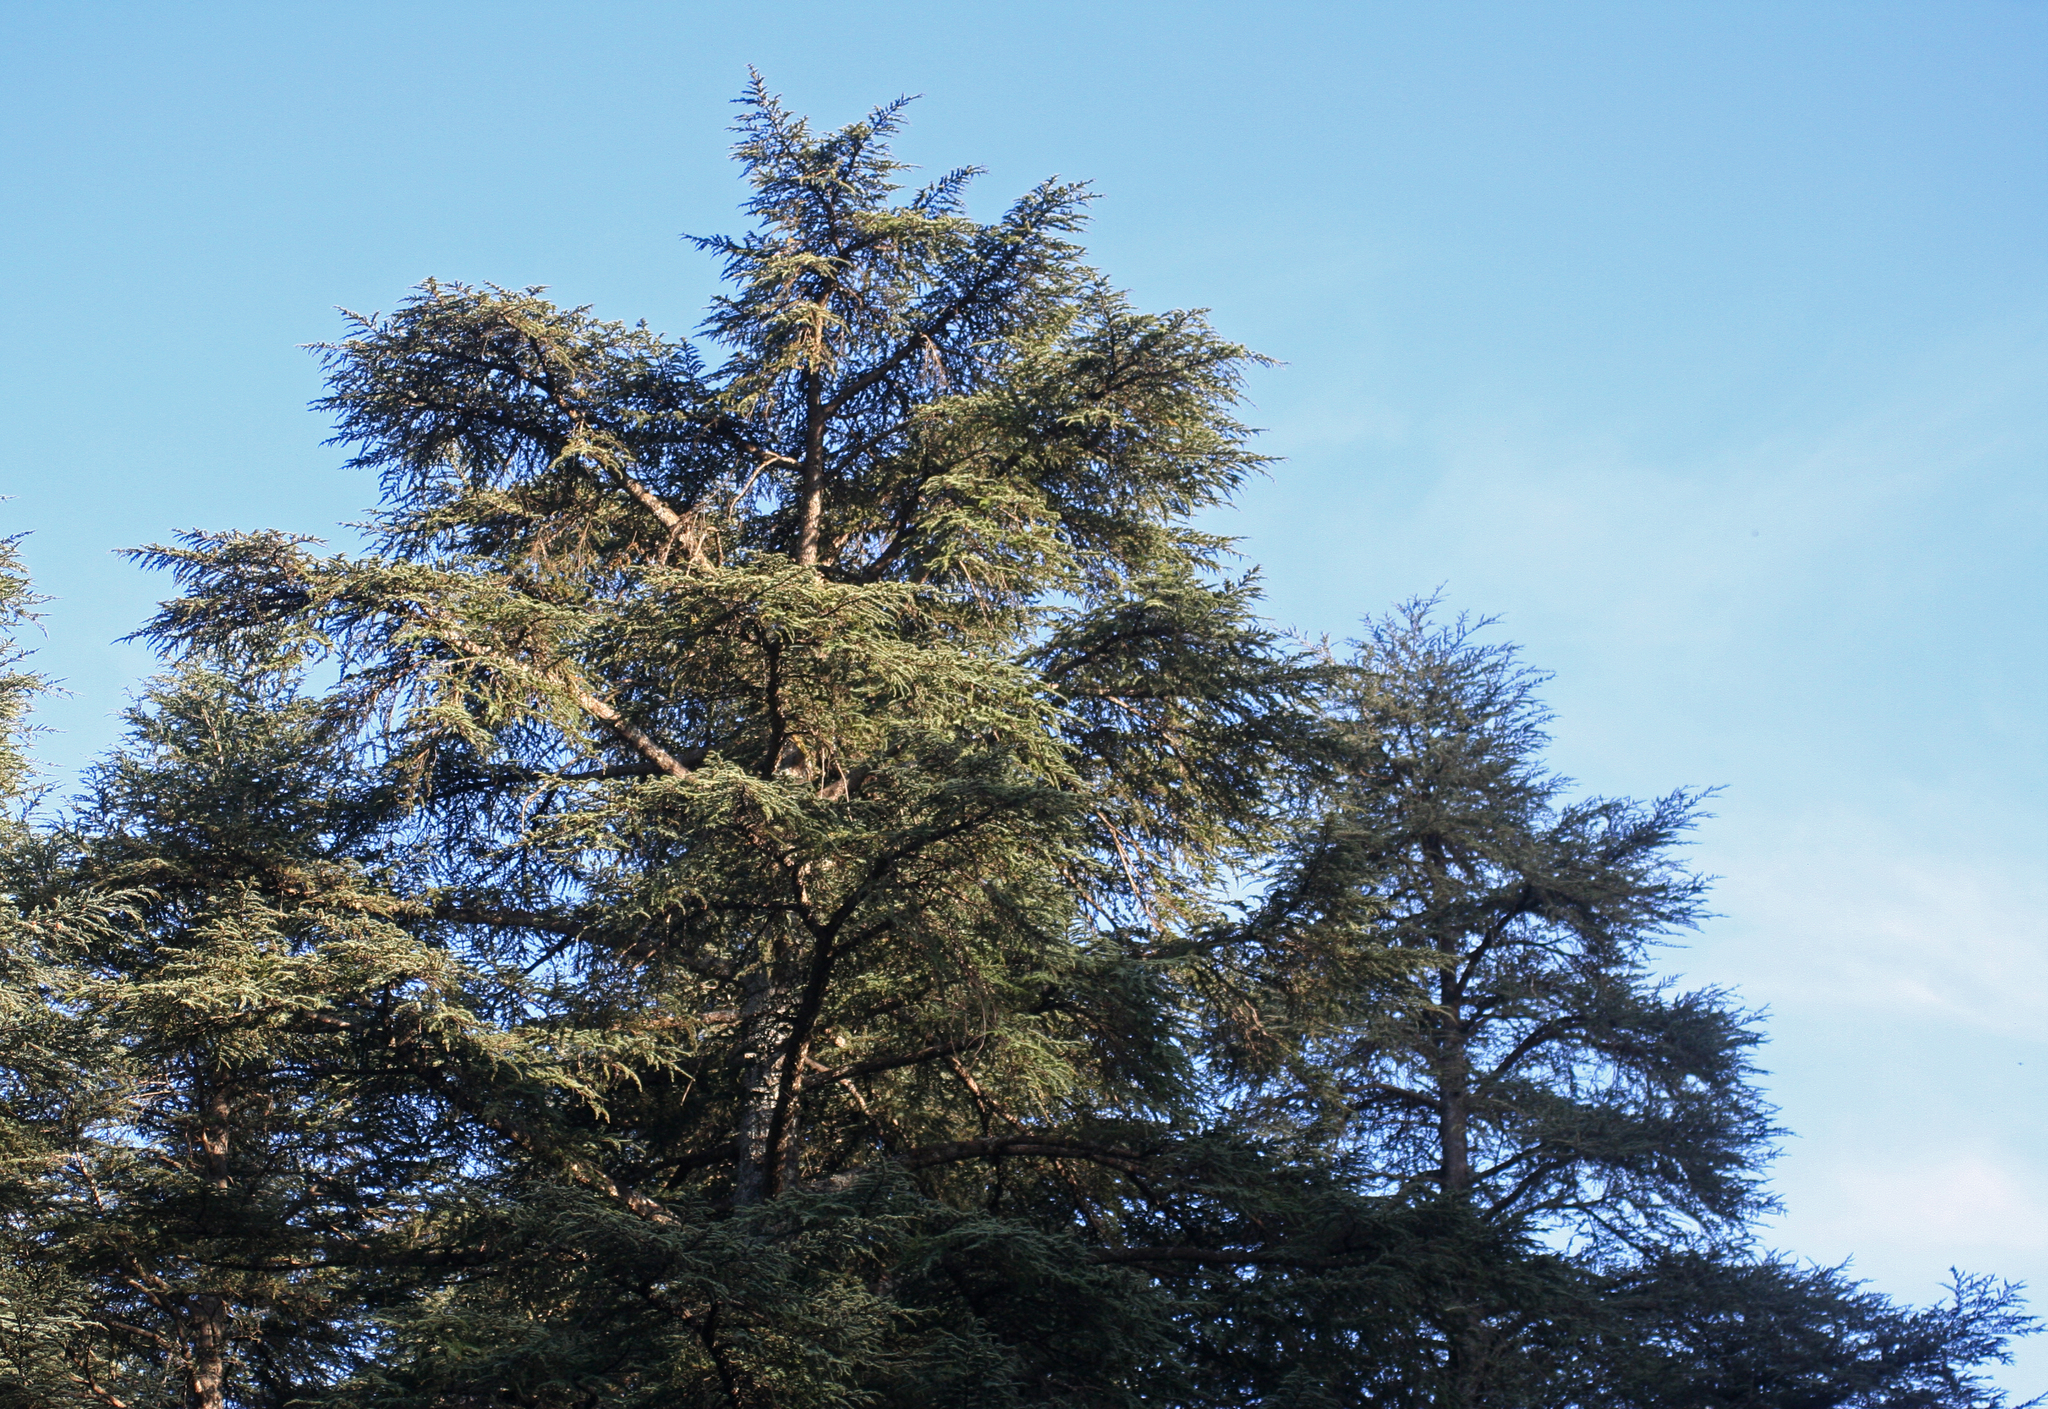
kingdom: Plantae
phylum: Tracheophyta
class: Pinopsida
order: Pinales
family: Pinaceae
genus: Cedrus
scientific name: Cedrus atlantica
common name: Atlas cedar
